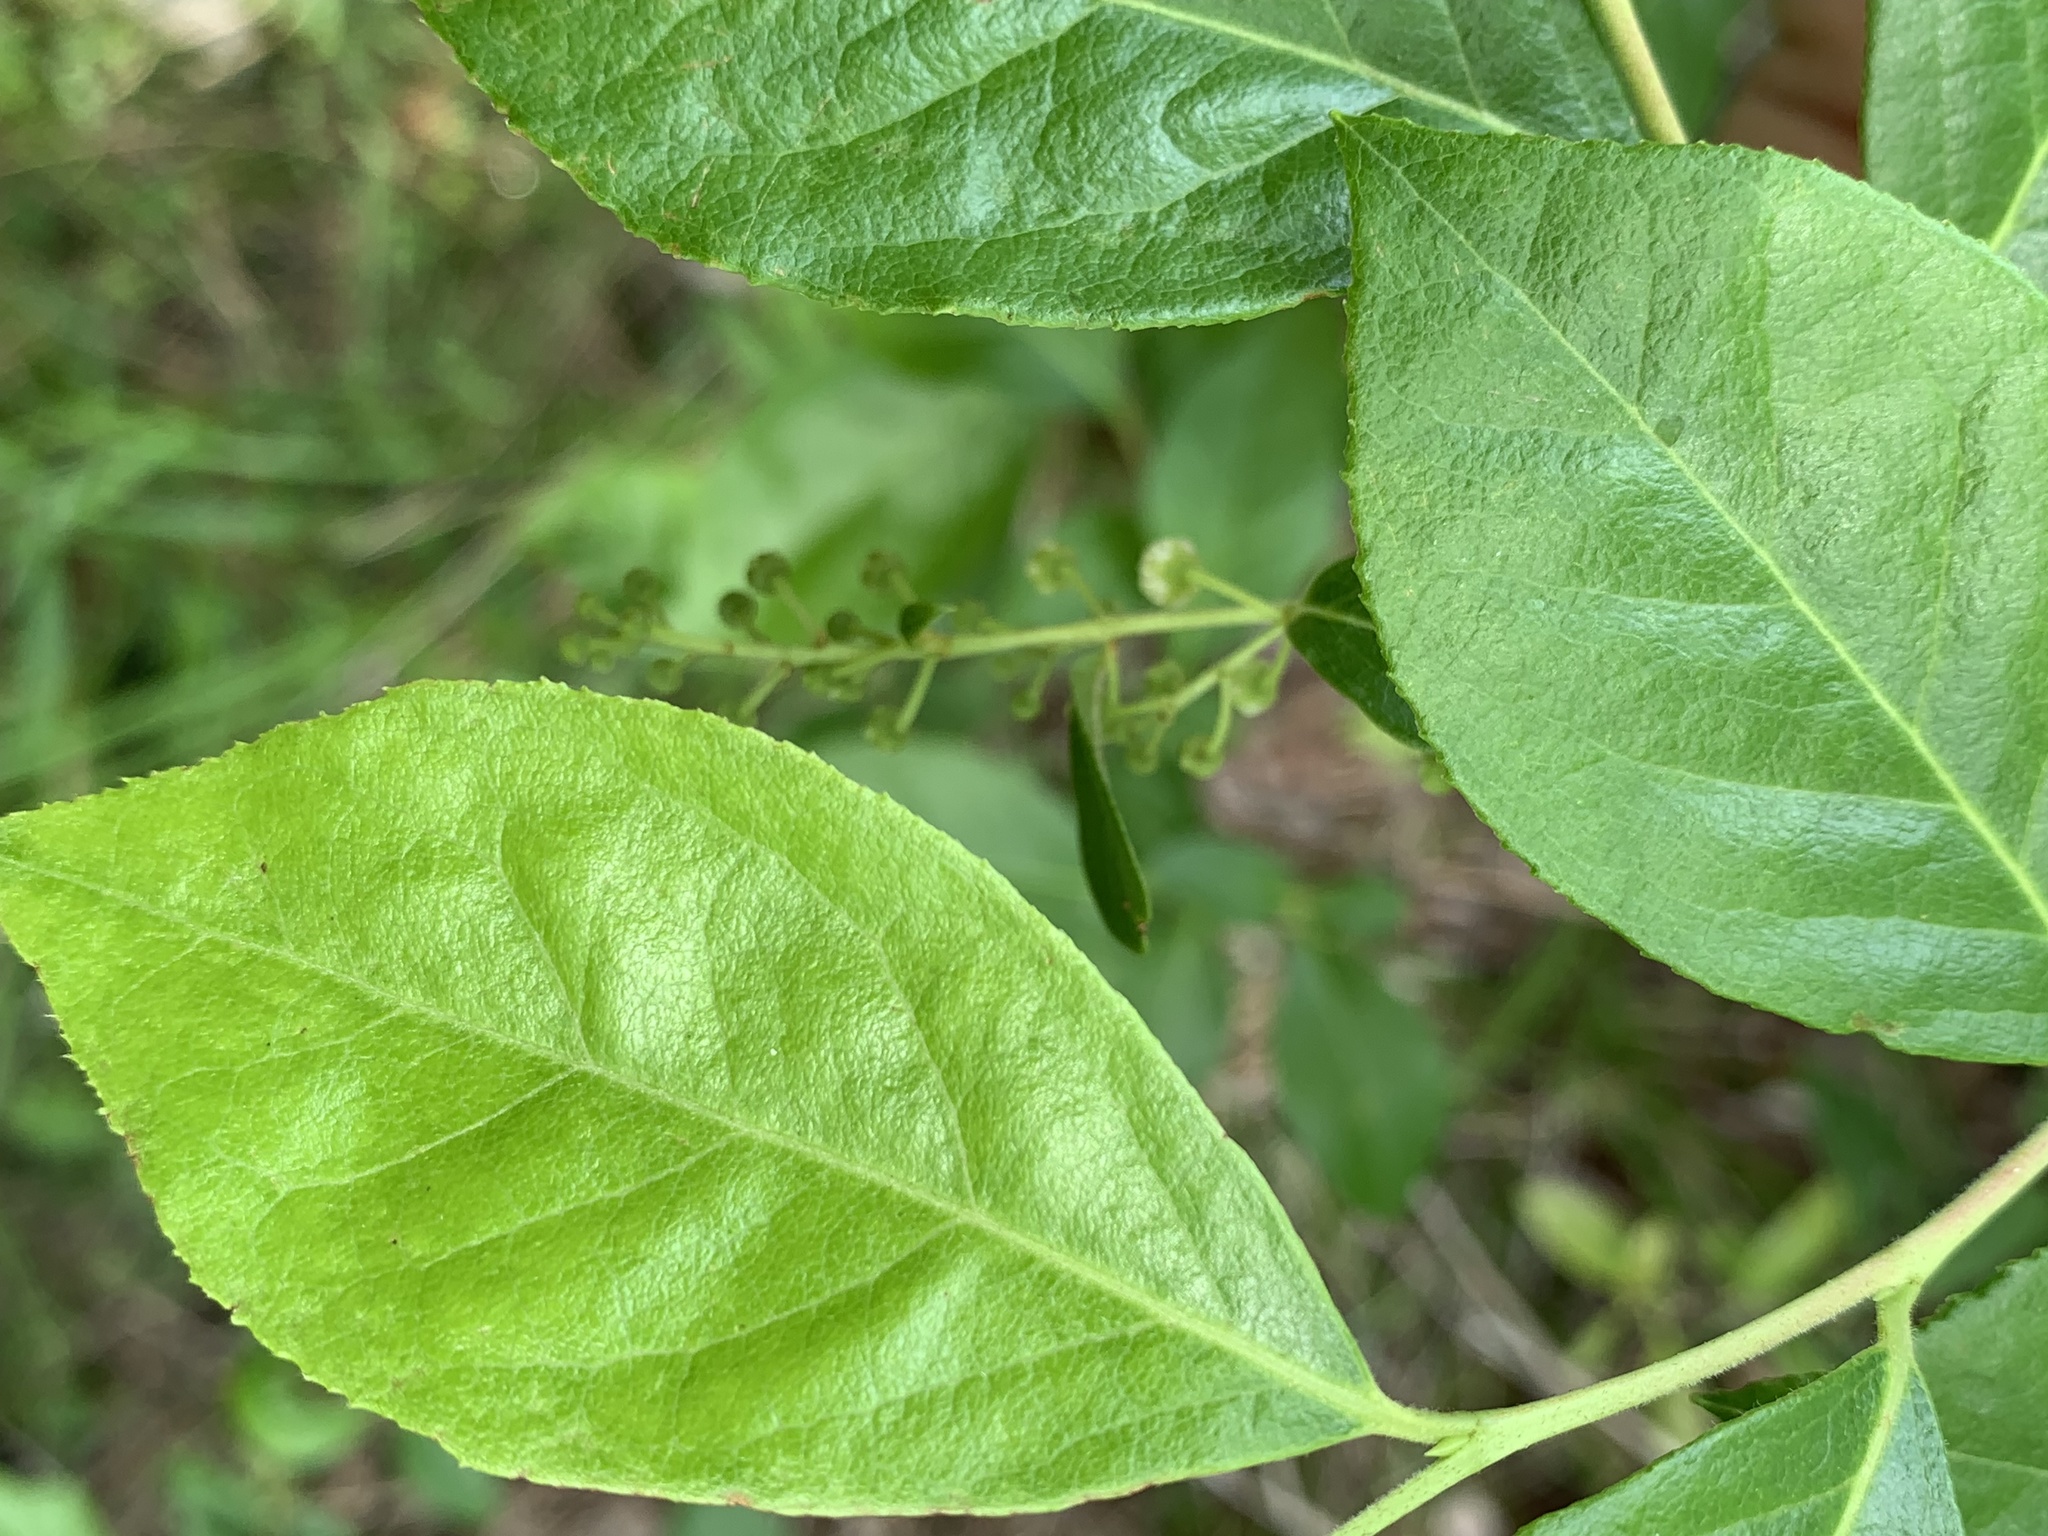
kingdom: Plantae
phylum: Tracheophyta
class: Magnoliopsida
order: Ericales
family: Ericaceae
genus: Lyonia
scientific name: Lyonia ligustrina
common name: Maleberry
